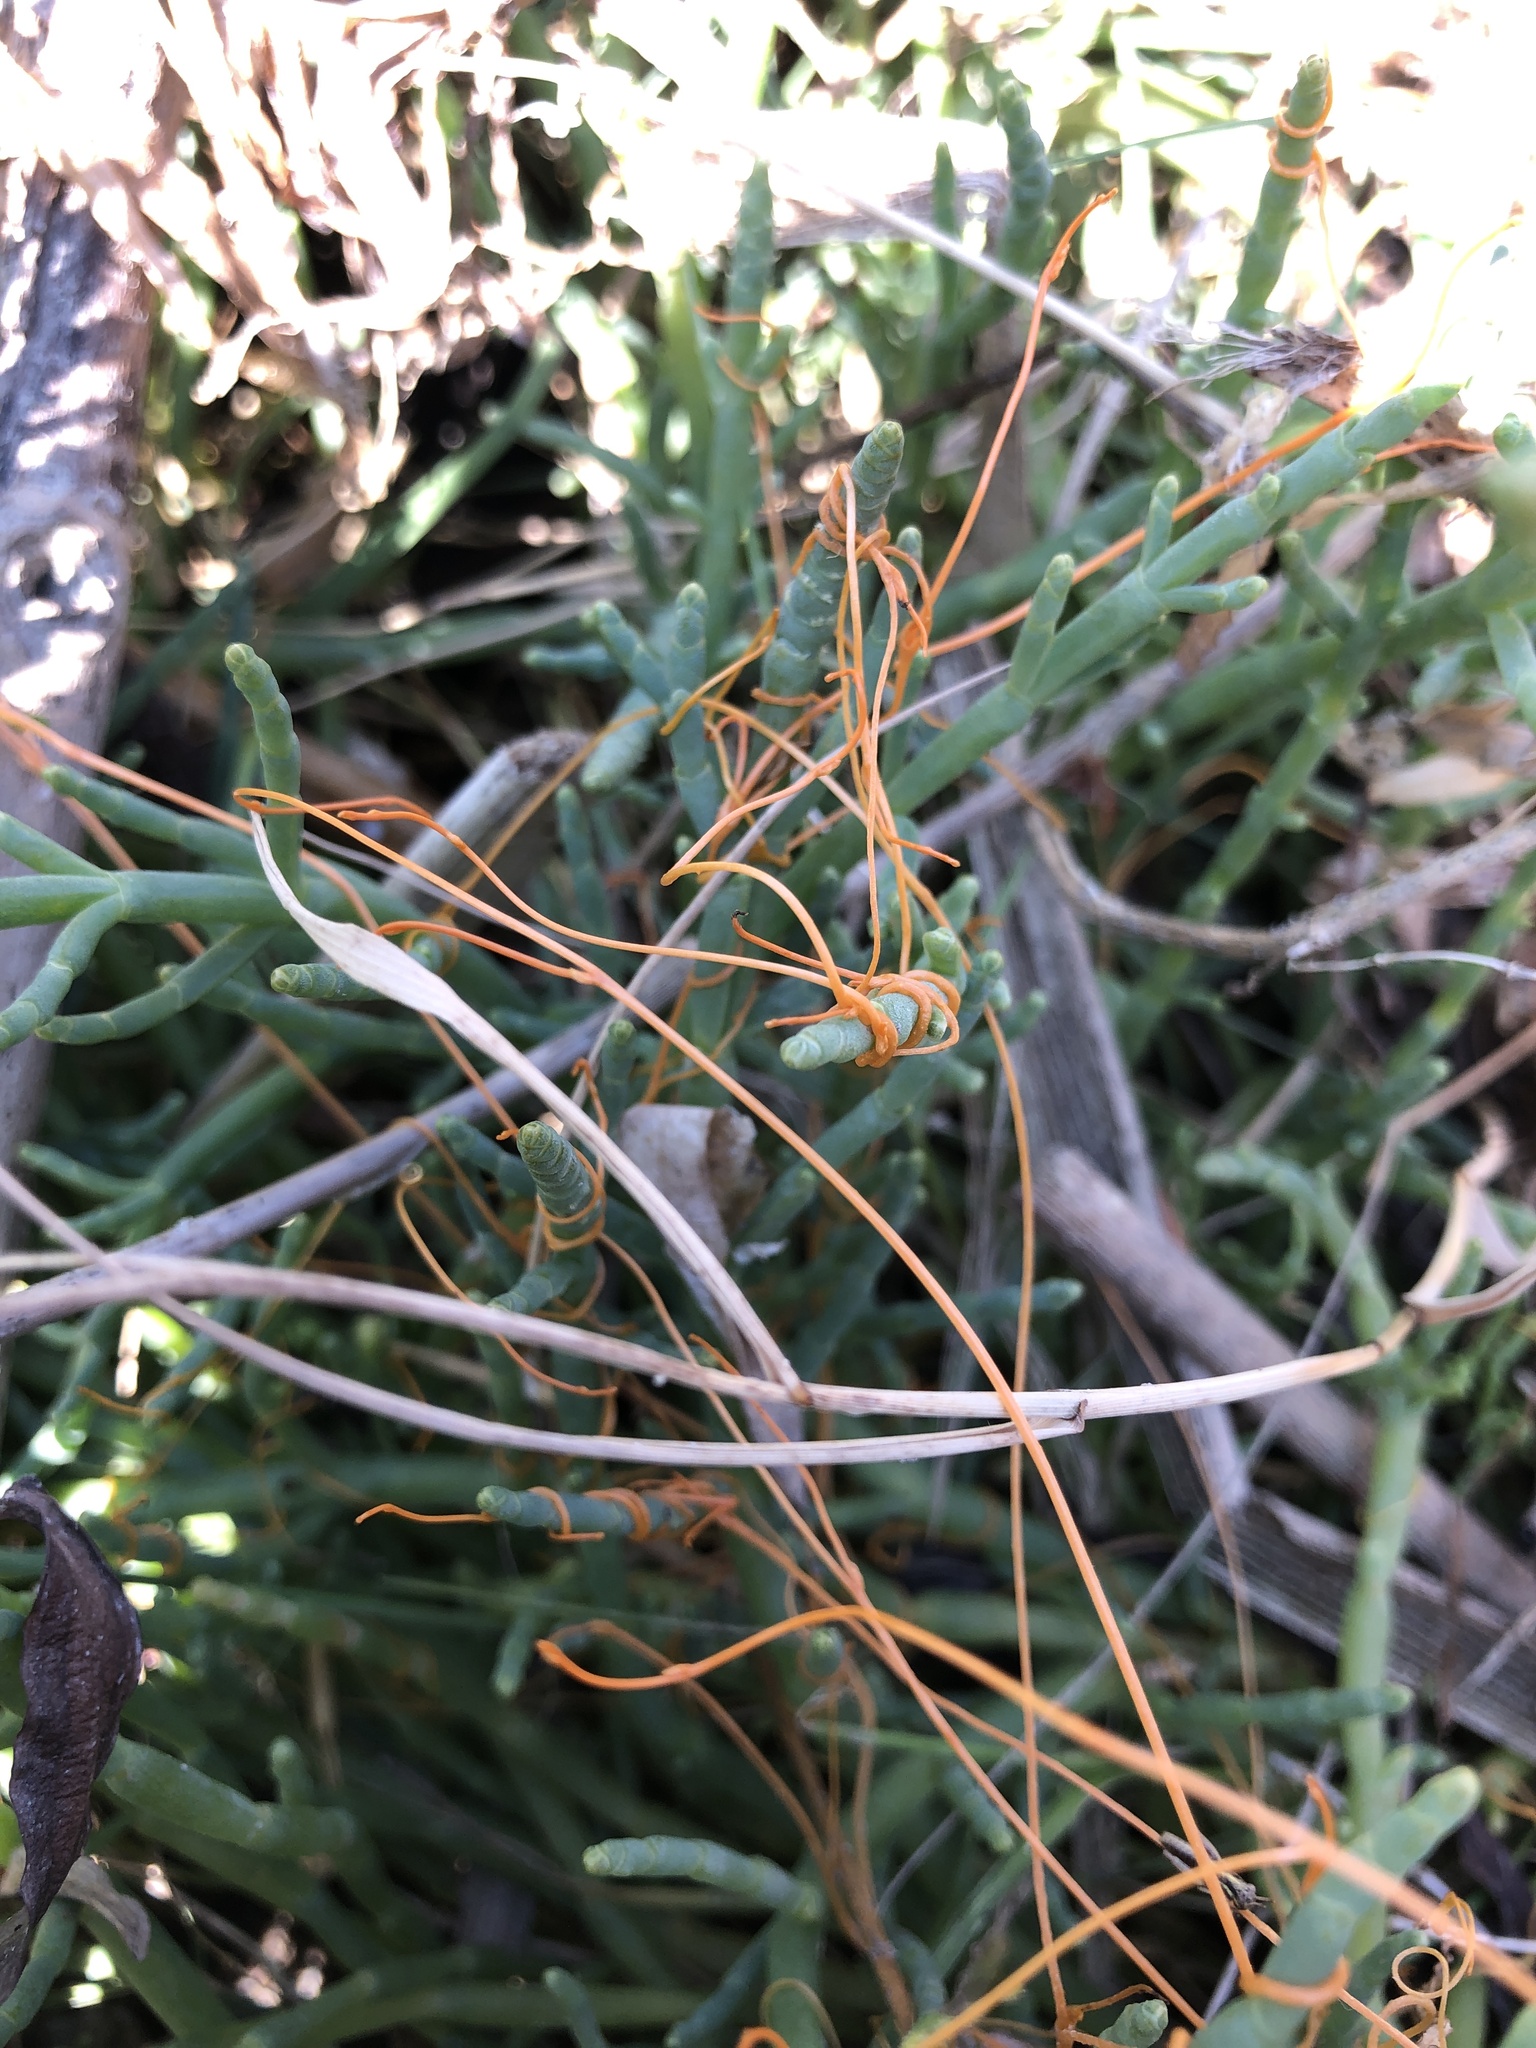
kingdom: Plantae
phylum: Tracheophyta
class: Magnoliopsida
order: Solanales
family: Convolvulaceae
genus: Cuscuta
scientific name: Cuscuta pacifica
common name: Large saltmarsh dodder
